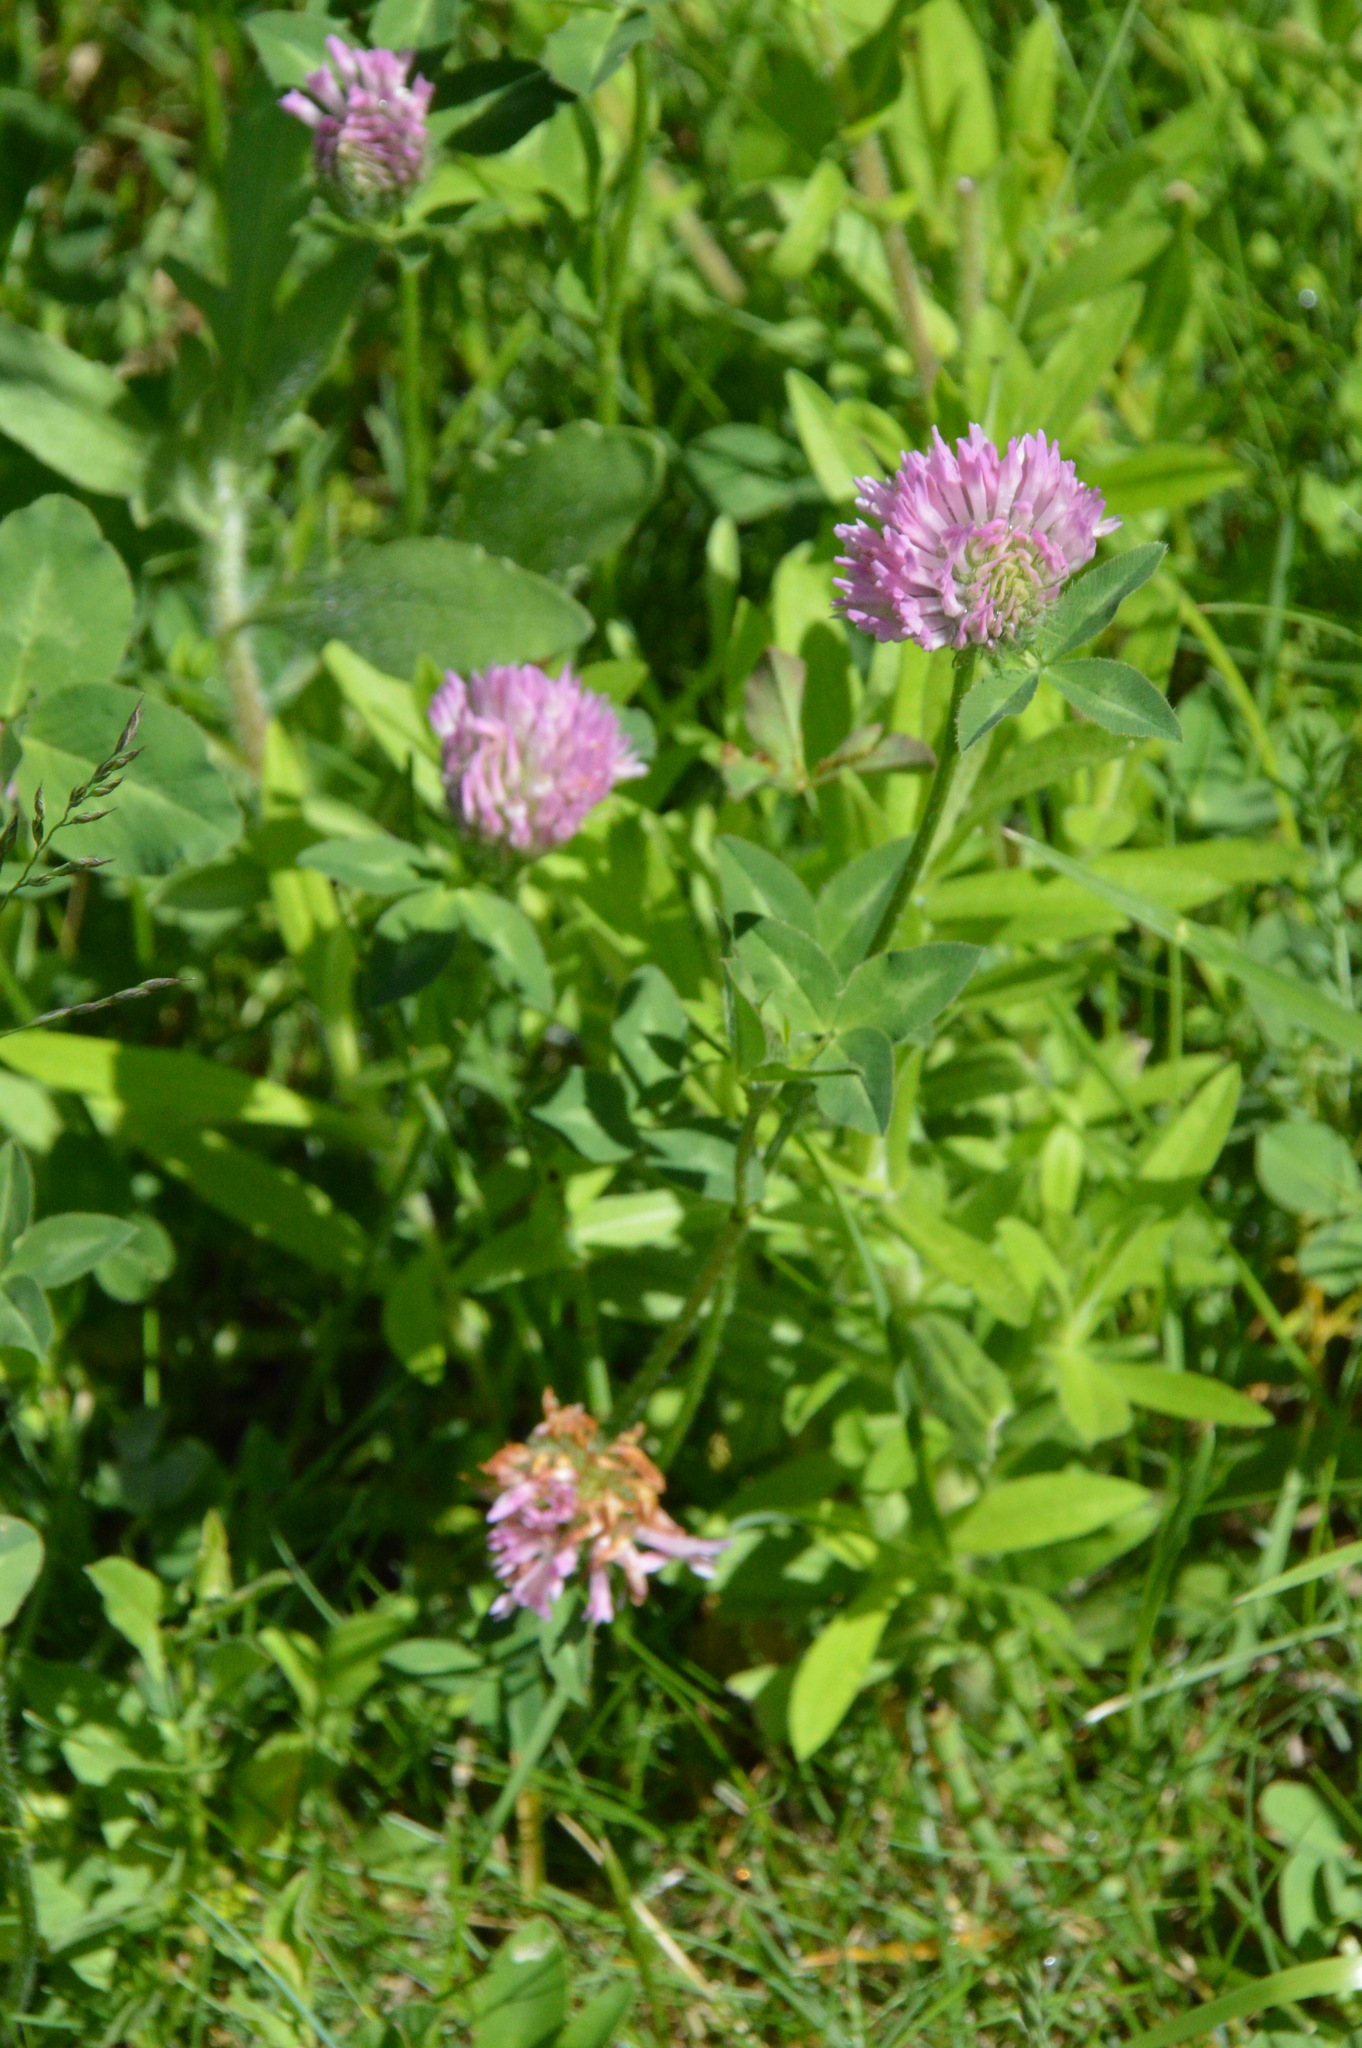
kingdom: Plantae
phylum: Tracheophyta
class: Magnoliopsida
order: Fabales
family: Fabaceae
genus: Trifolium
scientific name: Trifolium pratense
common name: Red clover
